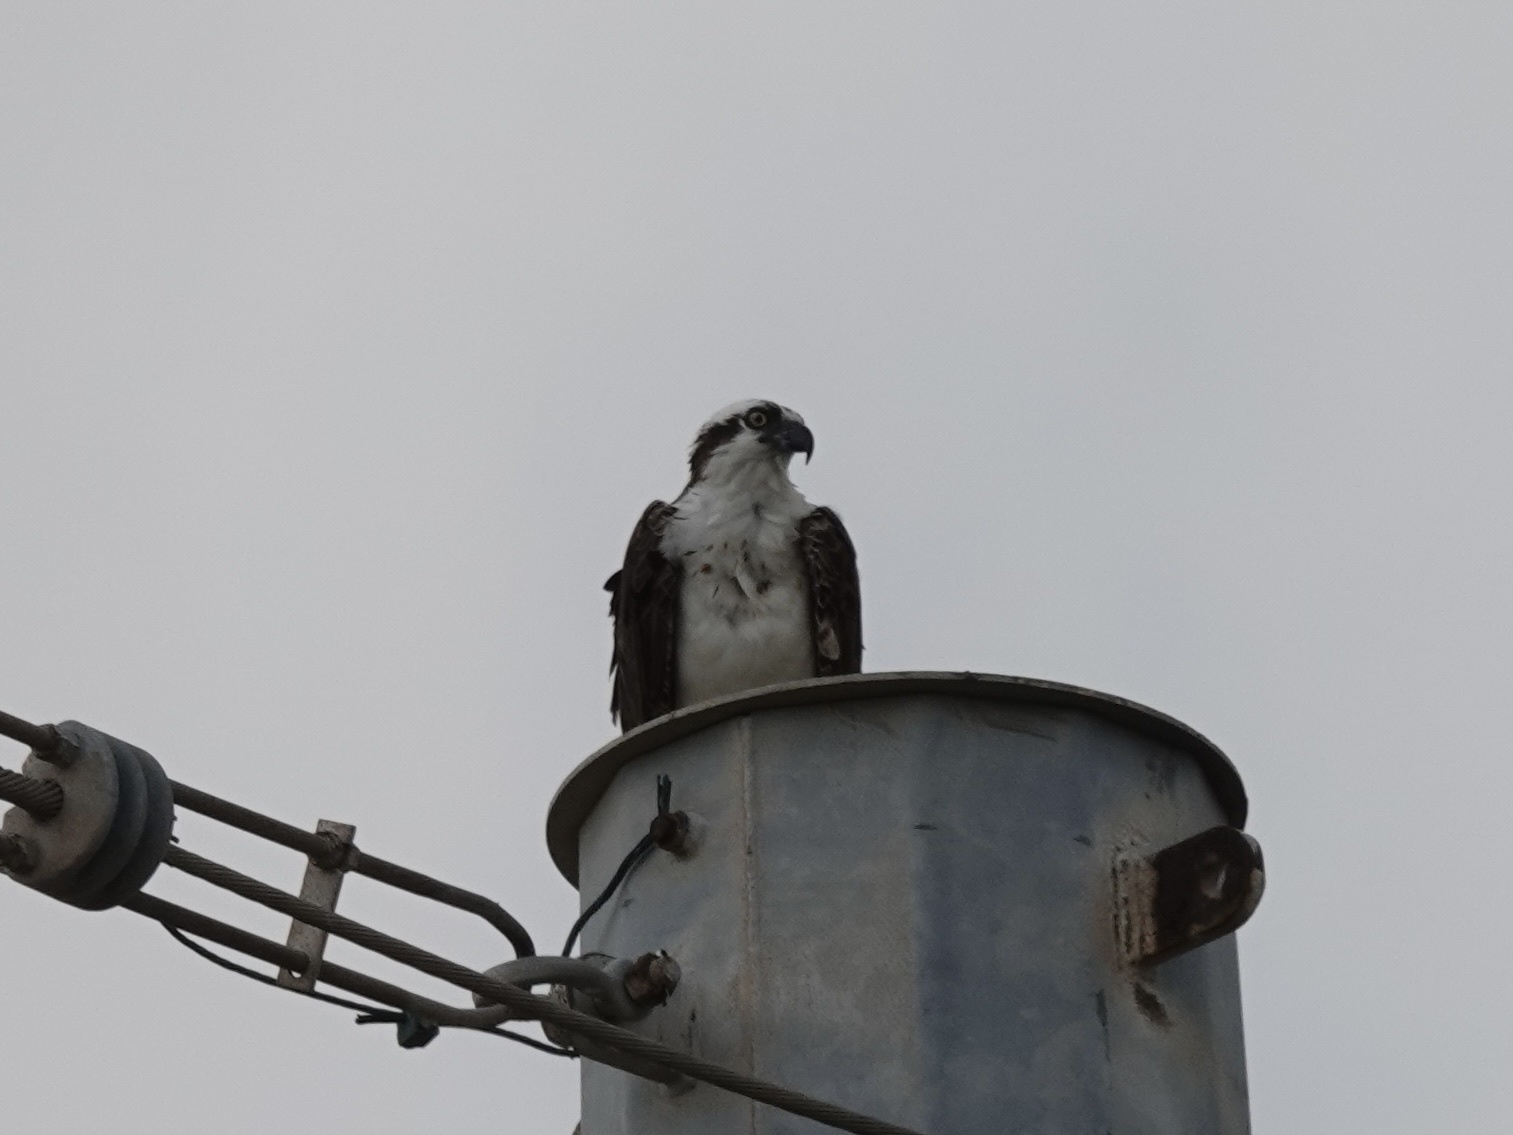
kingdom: Animalia
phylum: Chordata
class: Aves
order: Accipitriformes
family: Pandionidae
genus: Pandion
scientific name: Pandion haliaetus
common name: Osprey
